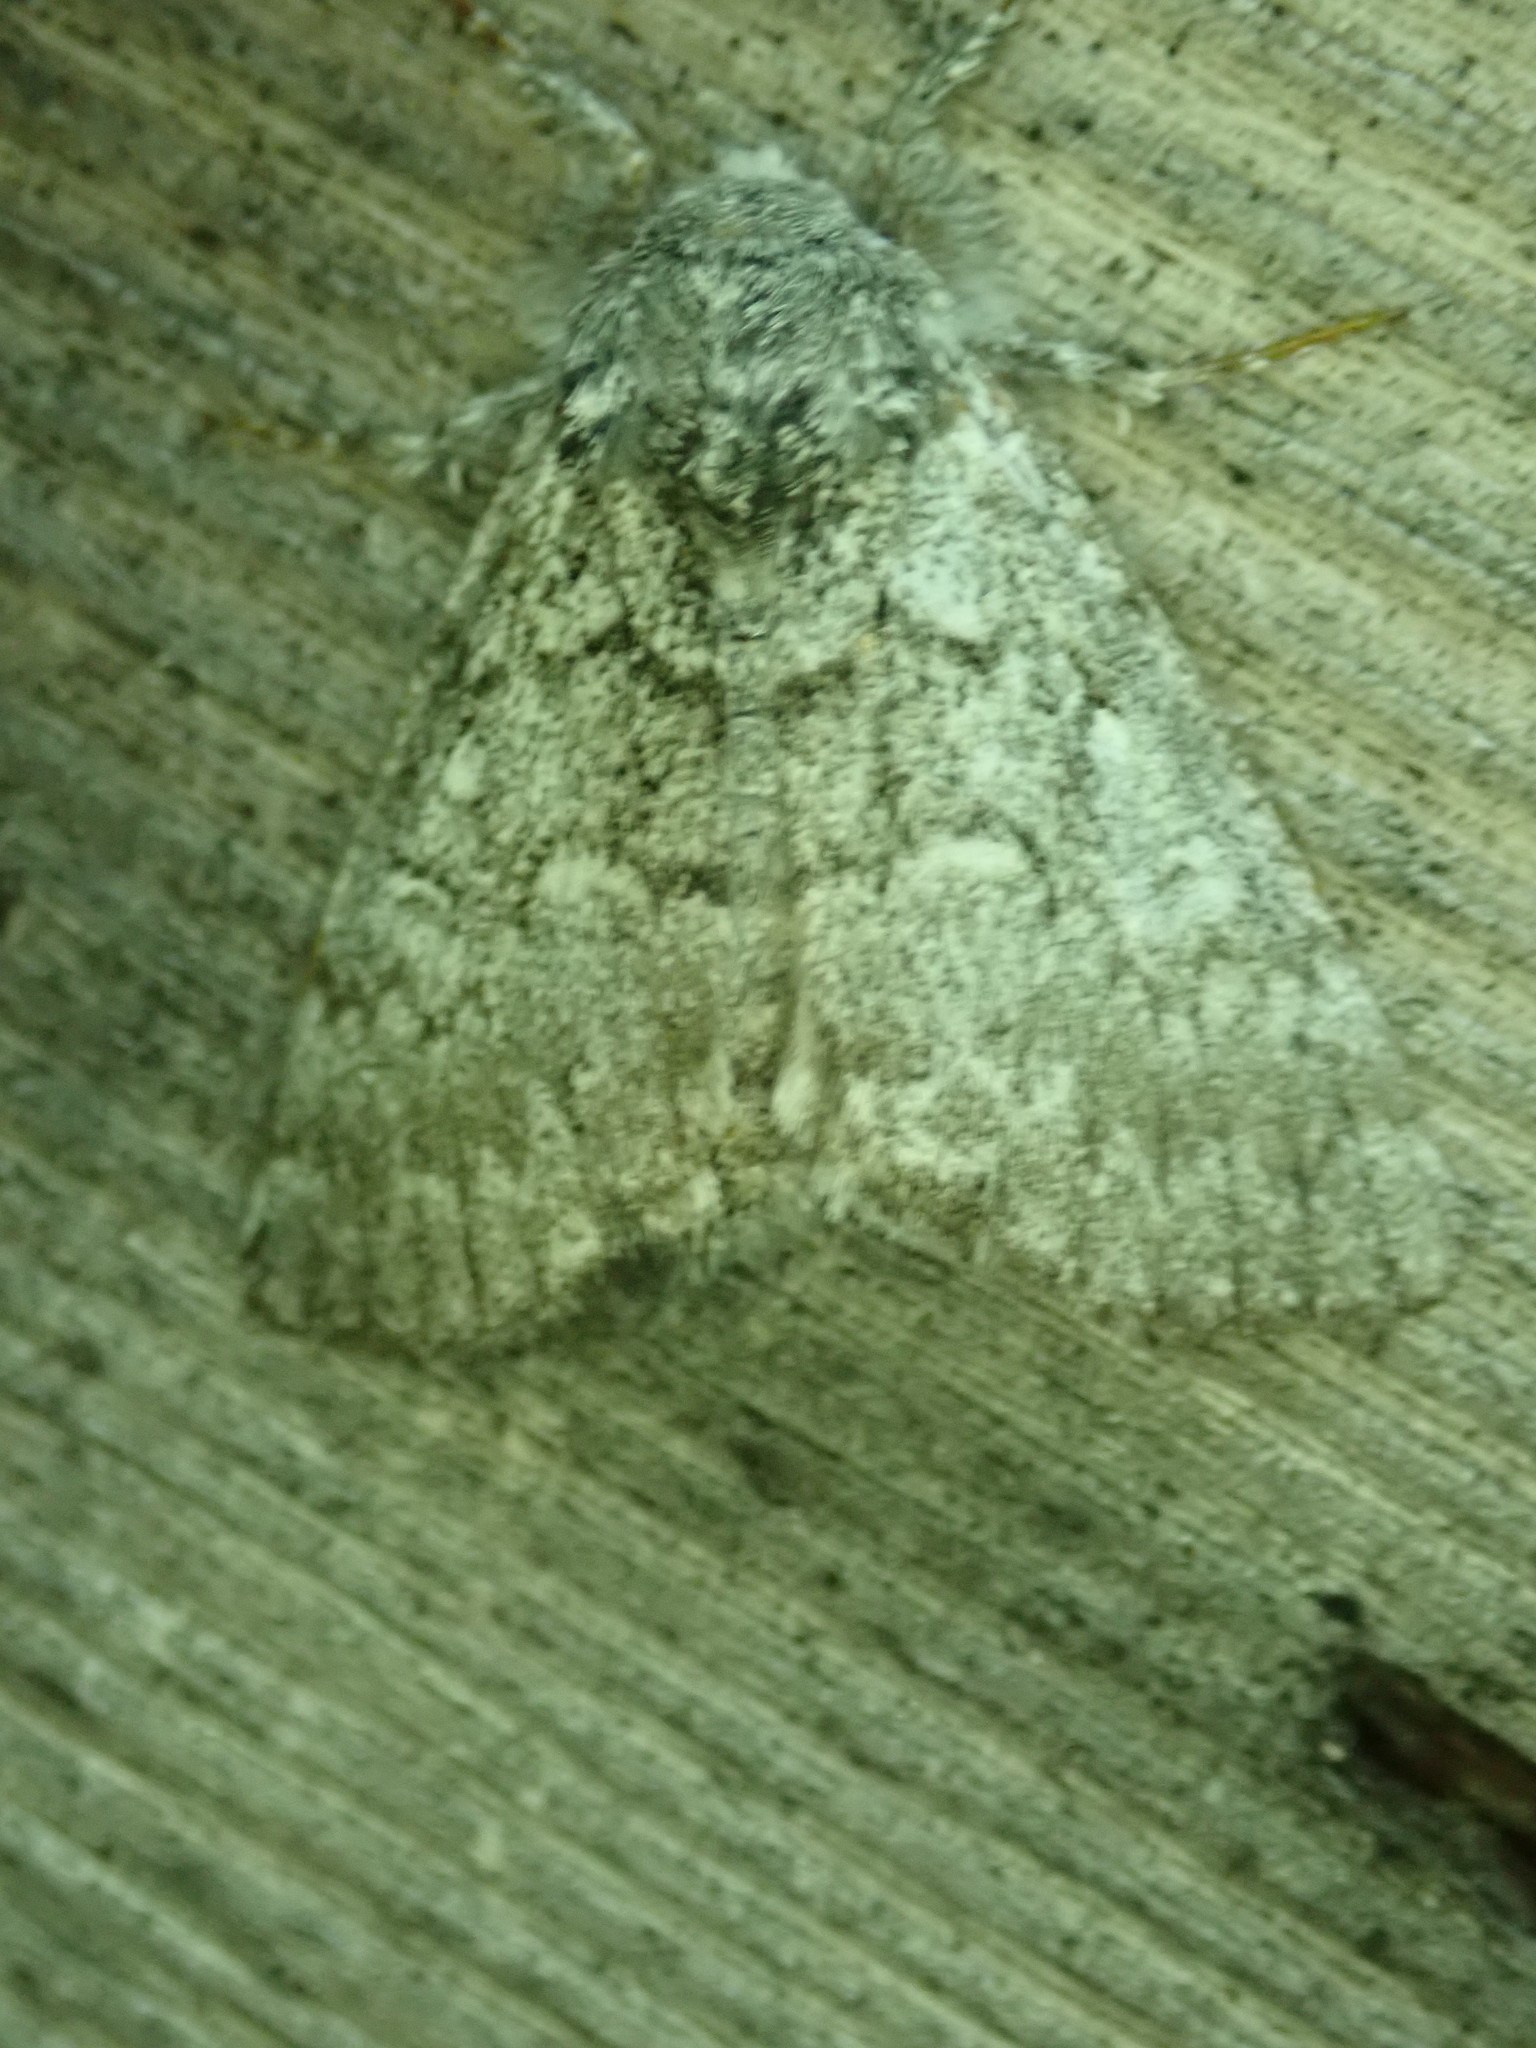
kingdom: Animalia
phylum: Arthropoda
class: Insecta
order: Lepidoptera
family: Noctuidae
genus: Colocasia
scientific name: Colocasia propinquilinea
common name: Close-banded demas
